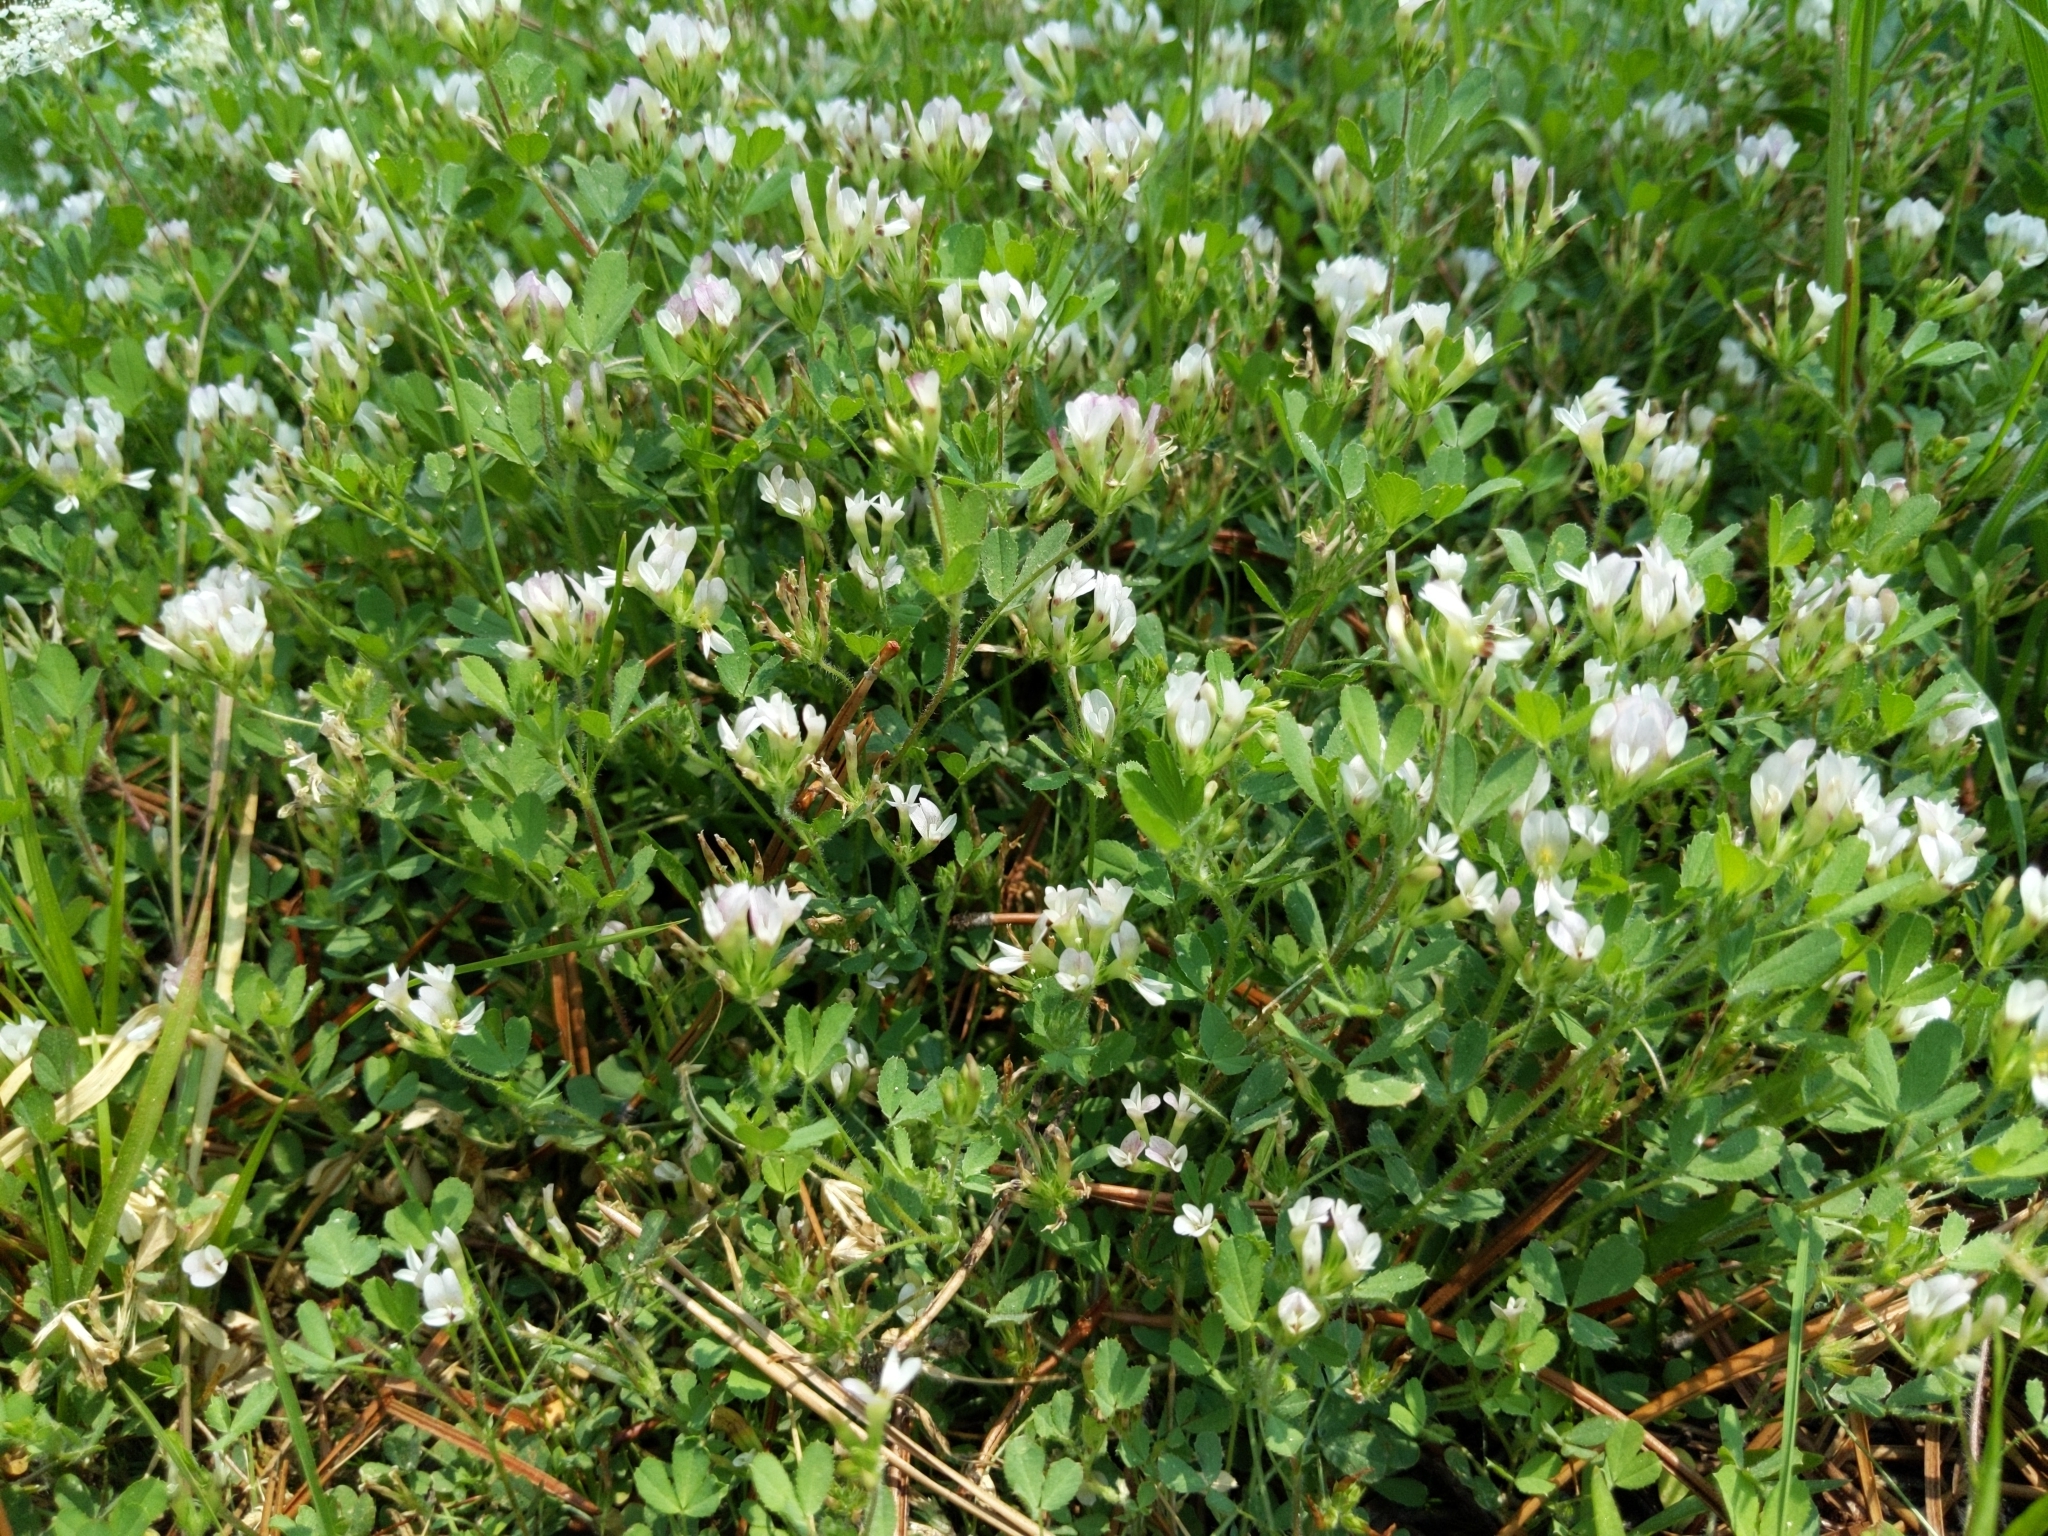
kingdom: Plantae
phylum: Tracheophyta
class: Magnoliopsida
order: Fabales
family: Fabaceae
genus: Trifolium
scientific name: Trifolium monanthum
